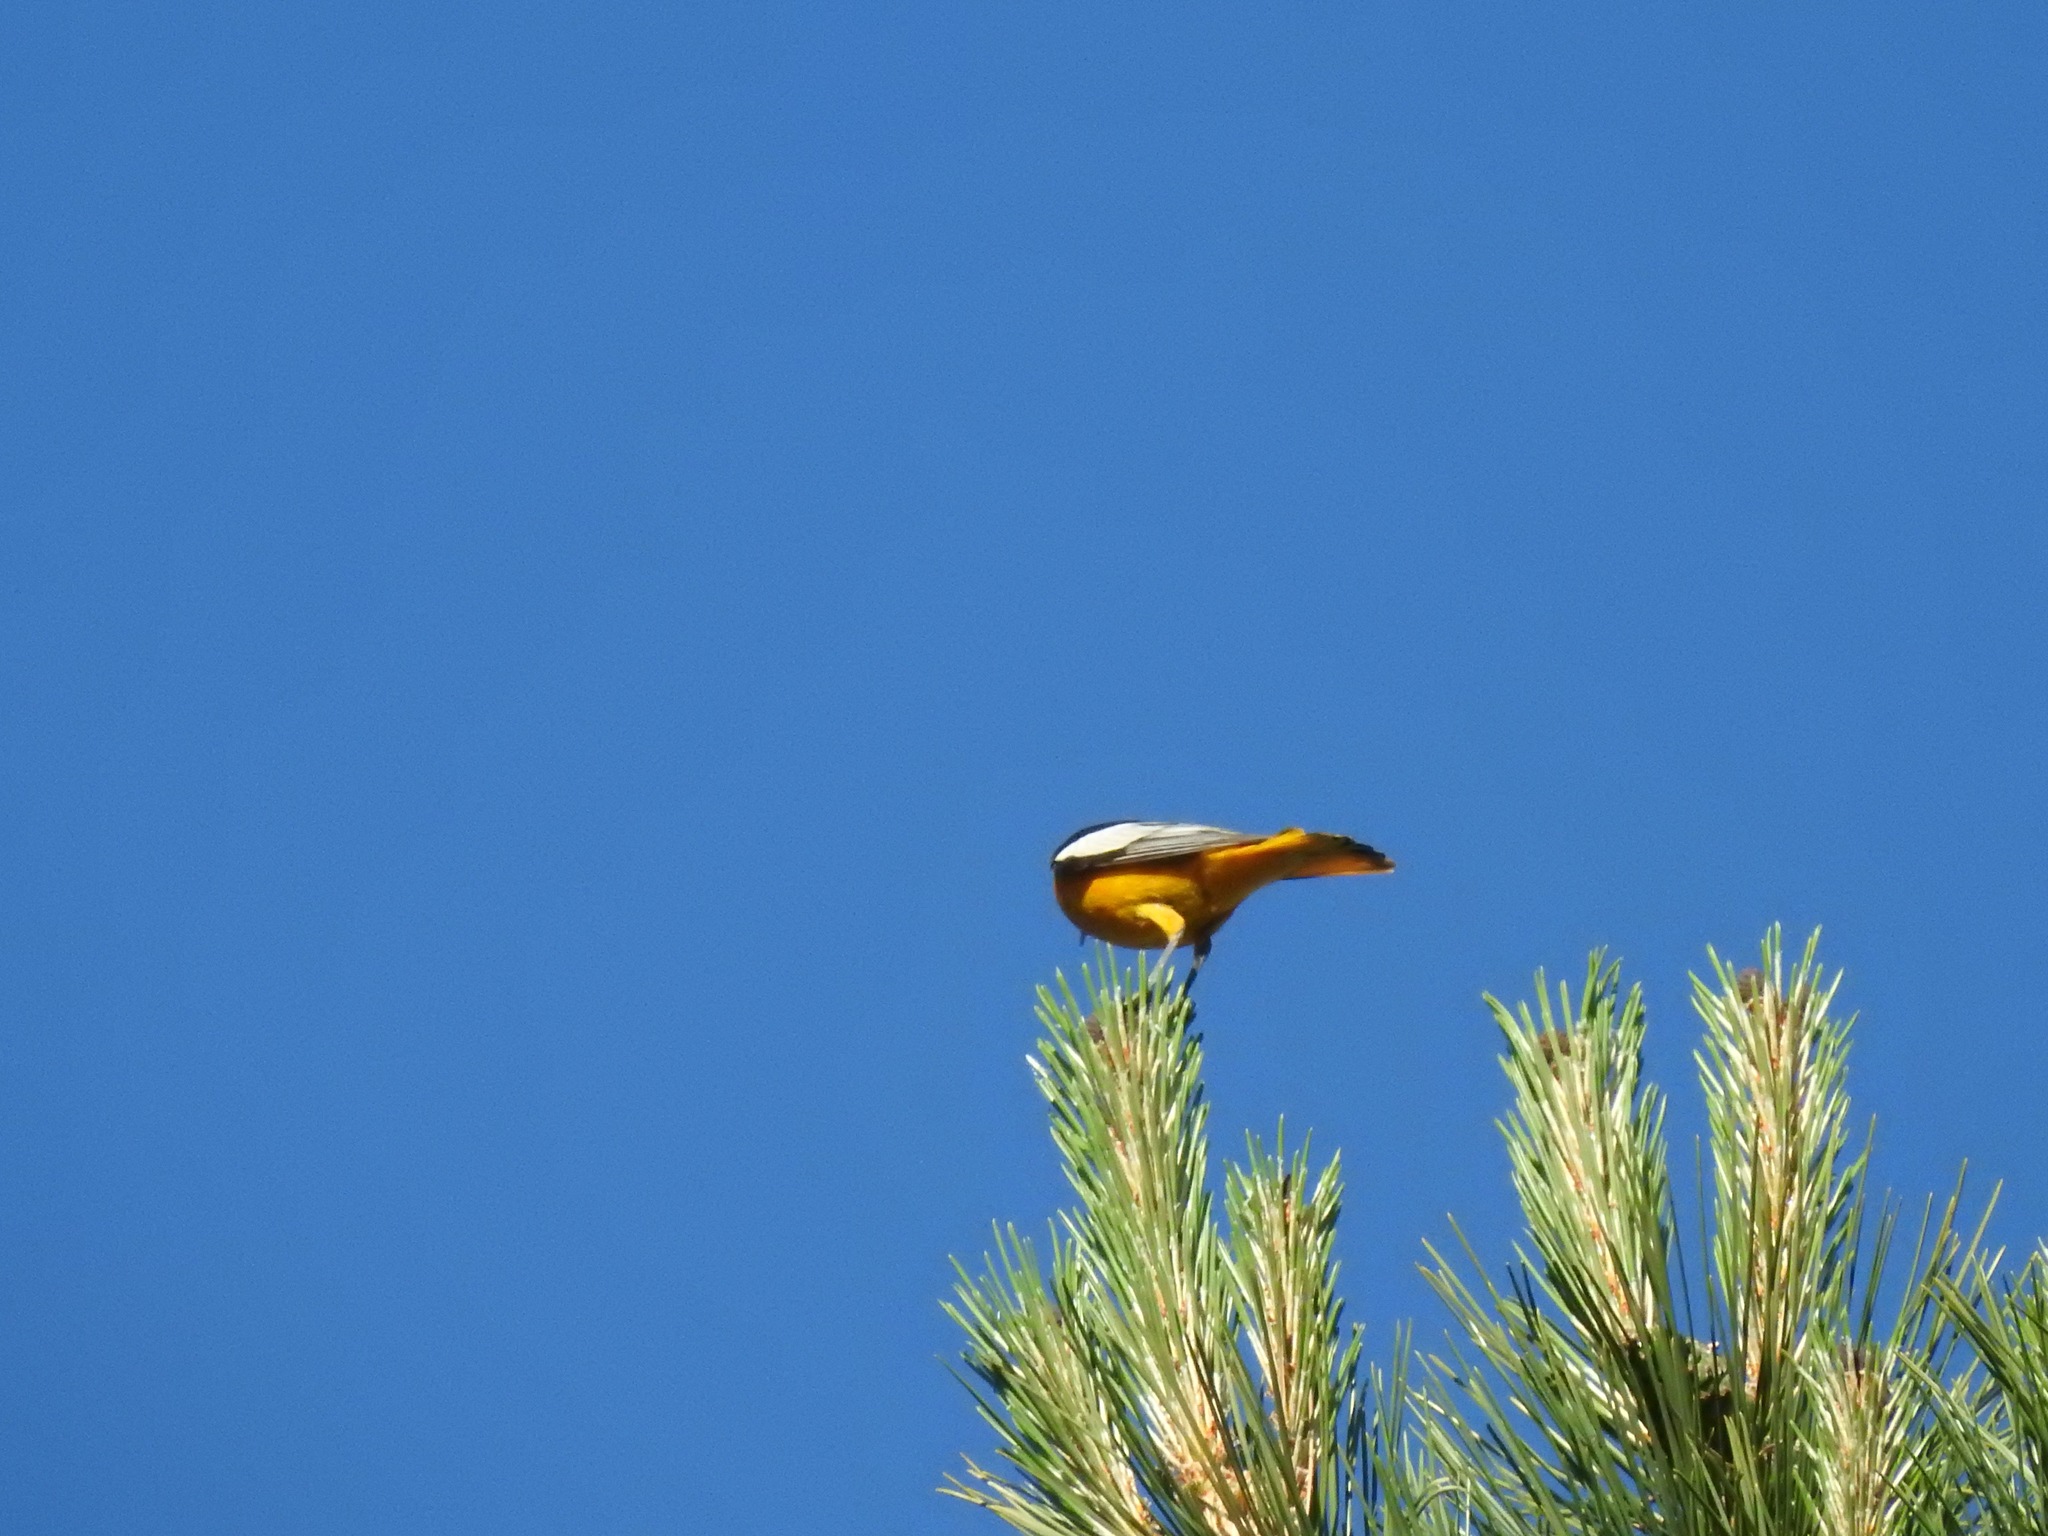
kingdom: Animalia
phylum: Chordata
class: Aves
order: Passeriformes
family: Icteridae
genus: Icterus
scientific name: Icterus bullockii
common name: Bullock's oriole
